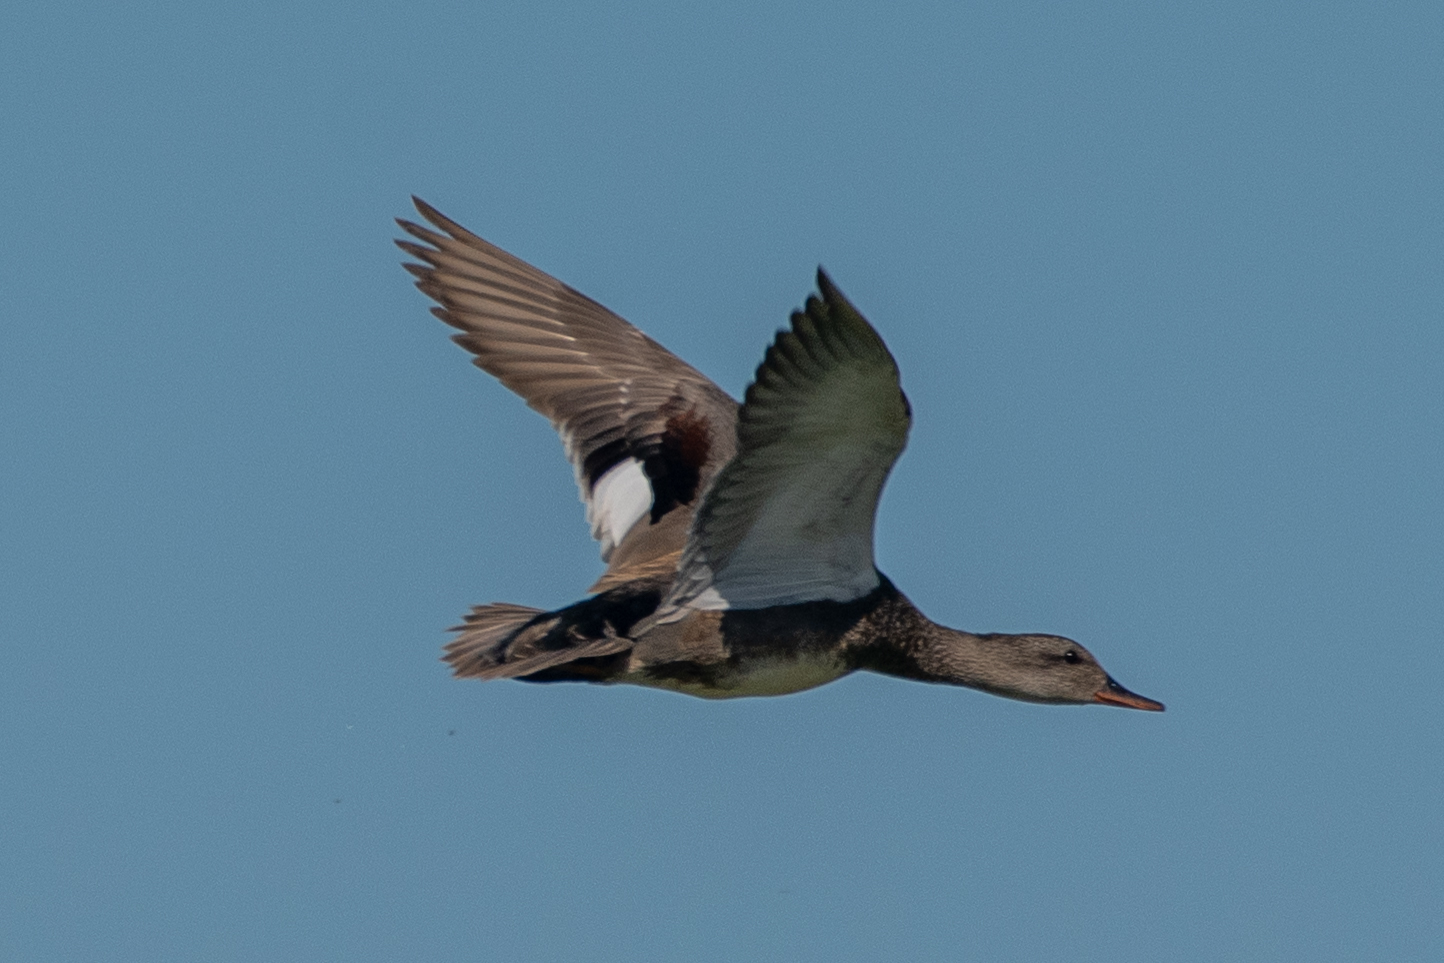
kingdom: Animalia
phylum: Chordata
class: Aves
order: Anseriformes
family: Anatidae
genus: Mareca
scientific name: Mareca strepera
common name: Gadwall
